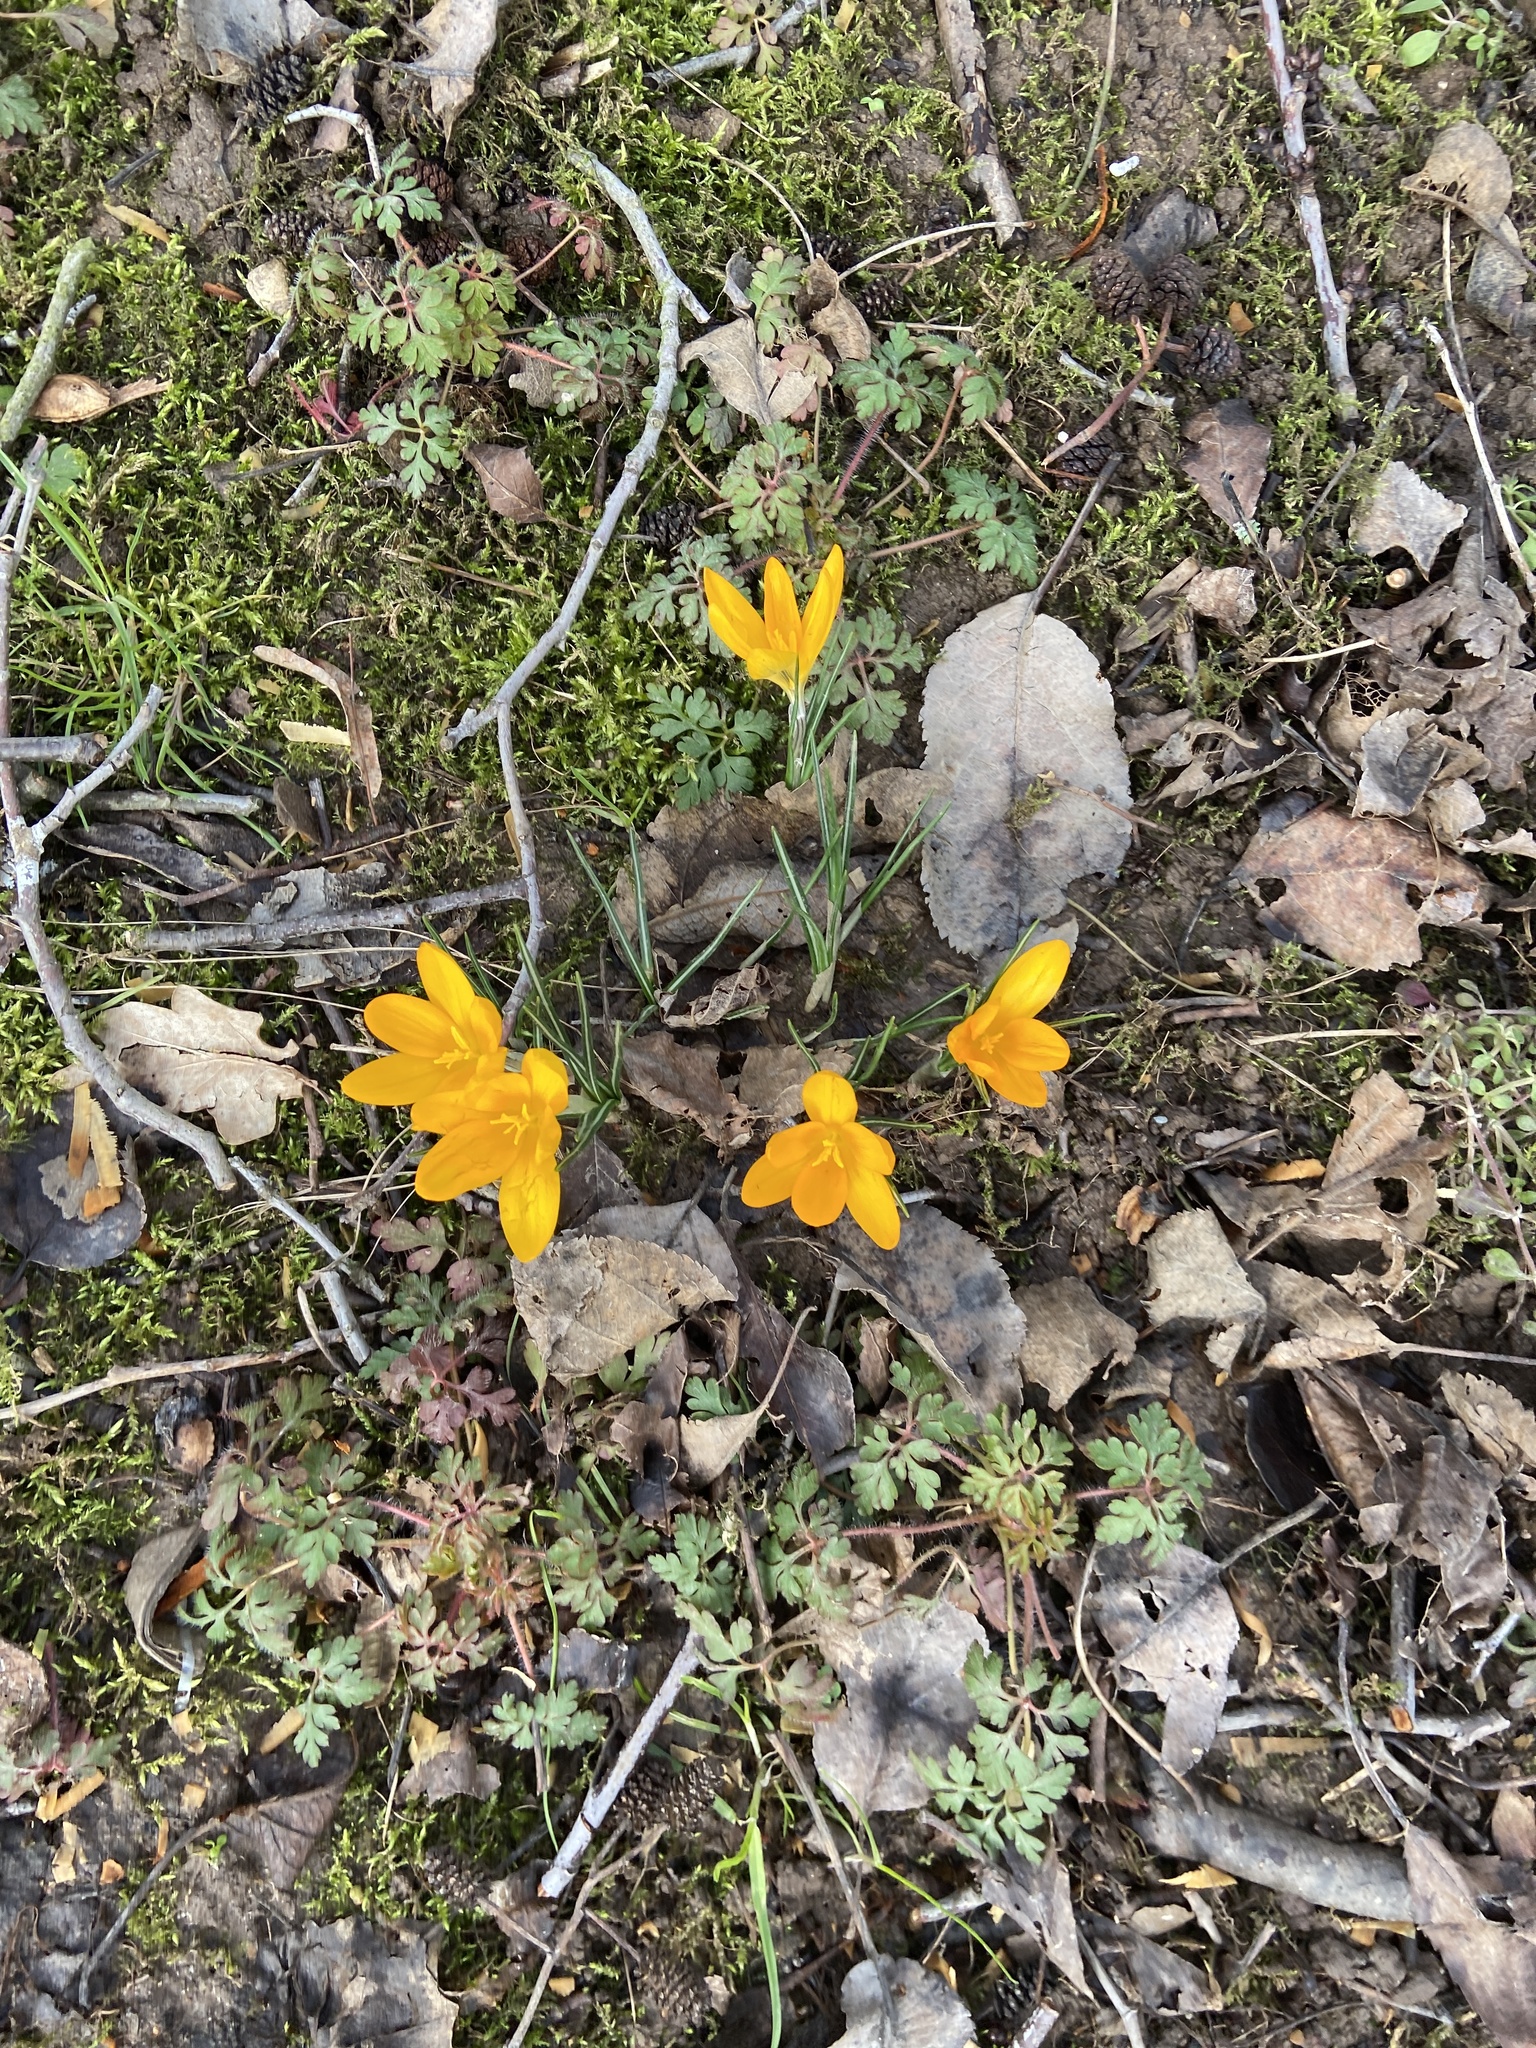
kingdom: Plantae
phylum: Tracheophyta
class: Liliopsida
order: Asparagales
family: Iridaceae
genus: Crocus
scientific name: Crocus luteus
